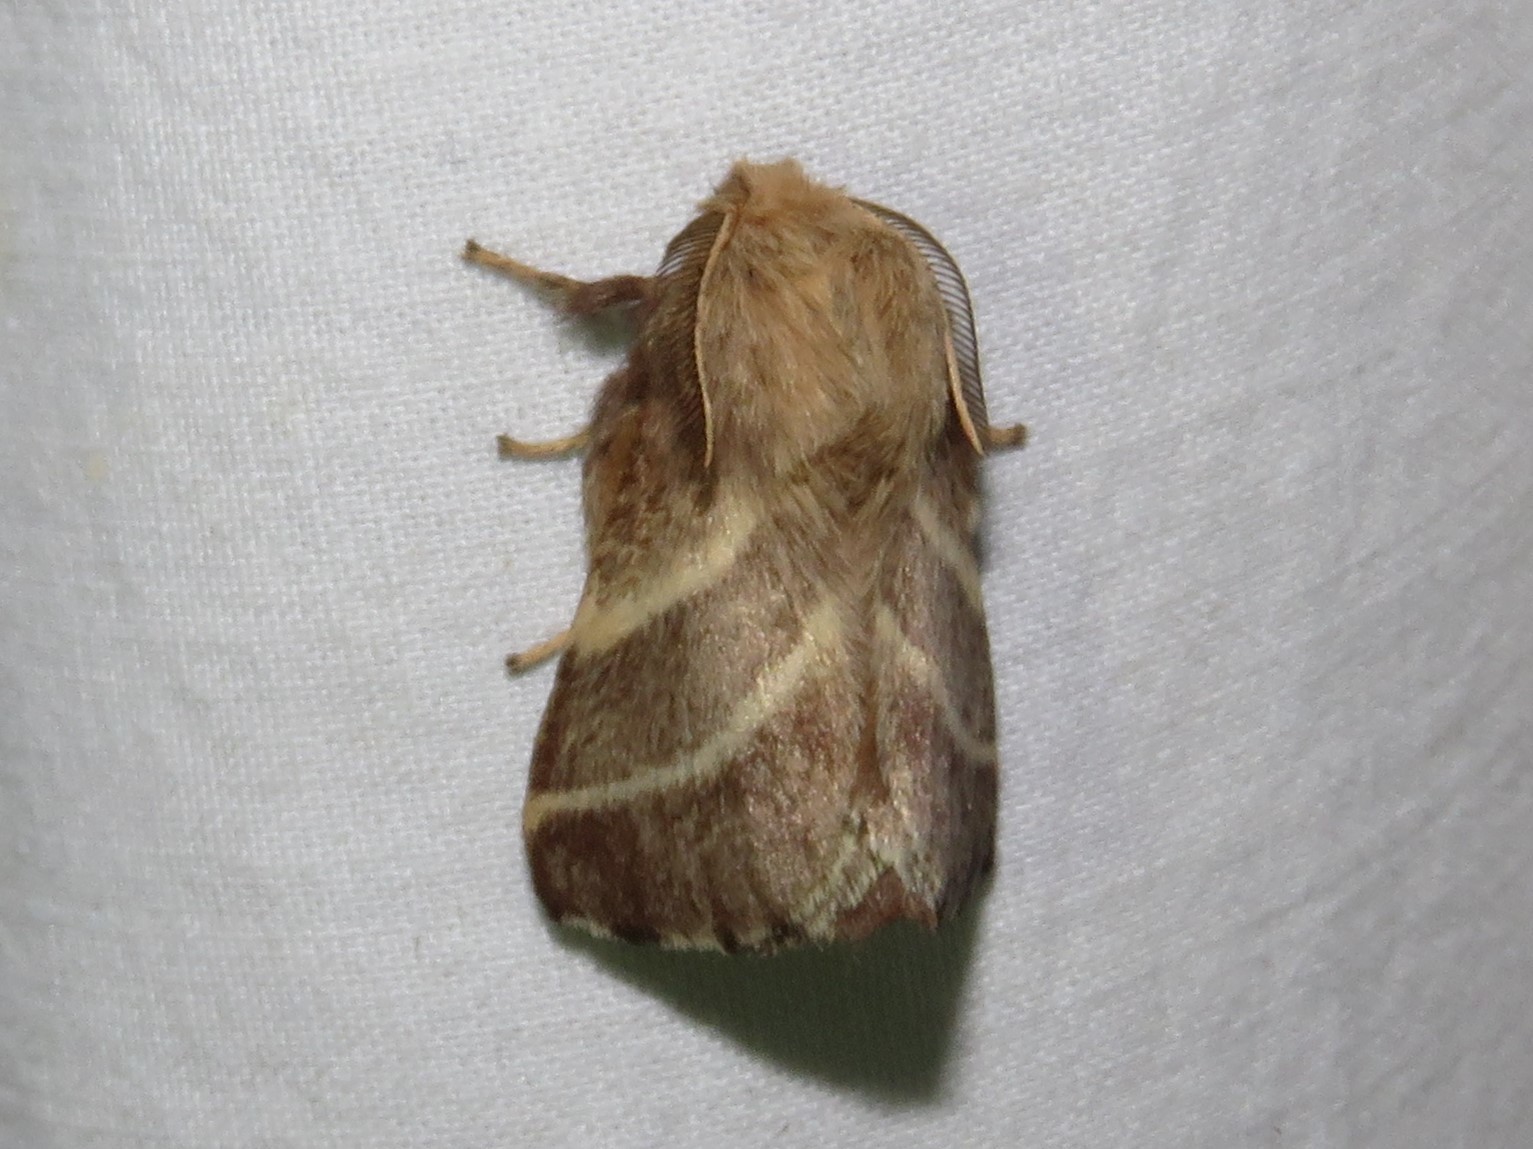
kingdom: Animalia
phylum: Arthropoda
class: Insecta
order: Lepidoptera
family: Lasiocampidae
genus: Malacosoma
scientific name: Malacosoma americana
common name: Eastern tent caterpillar moth
